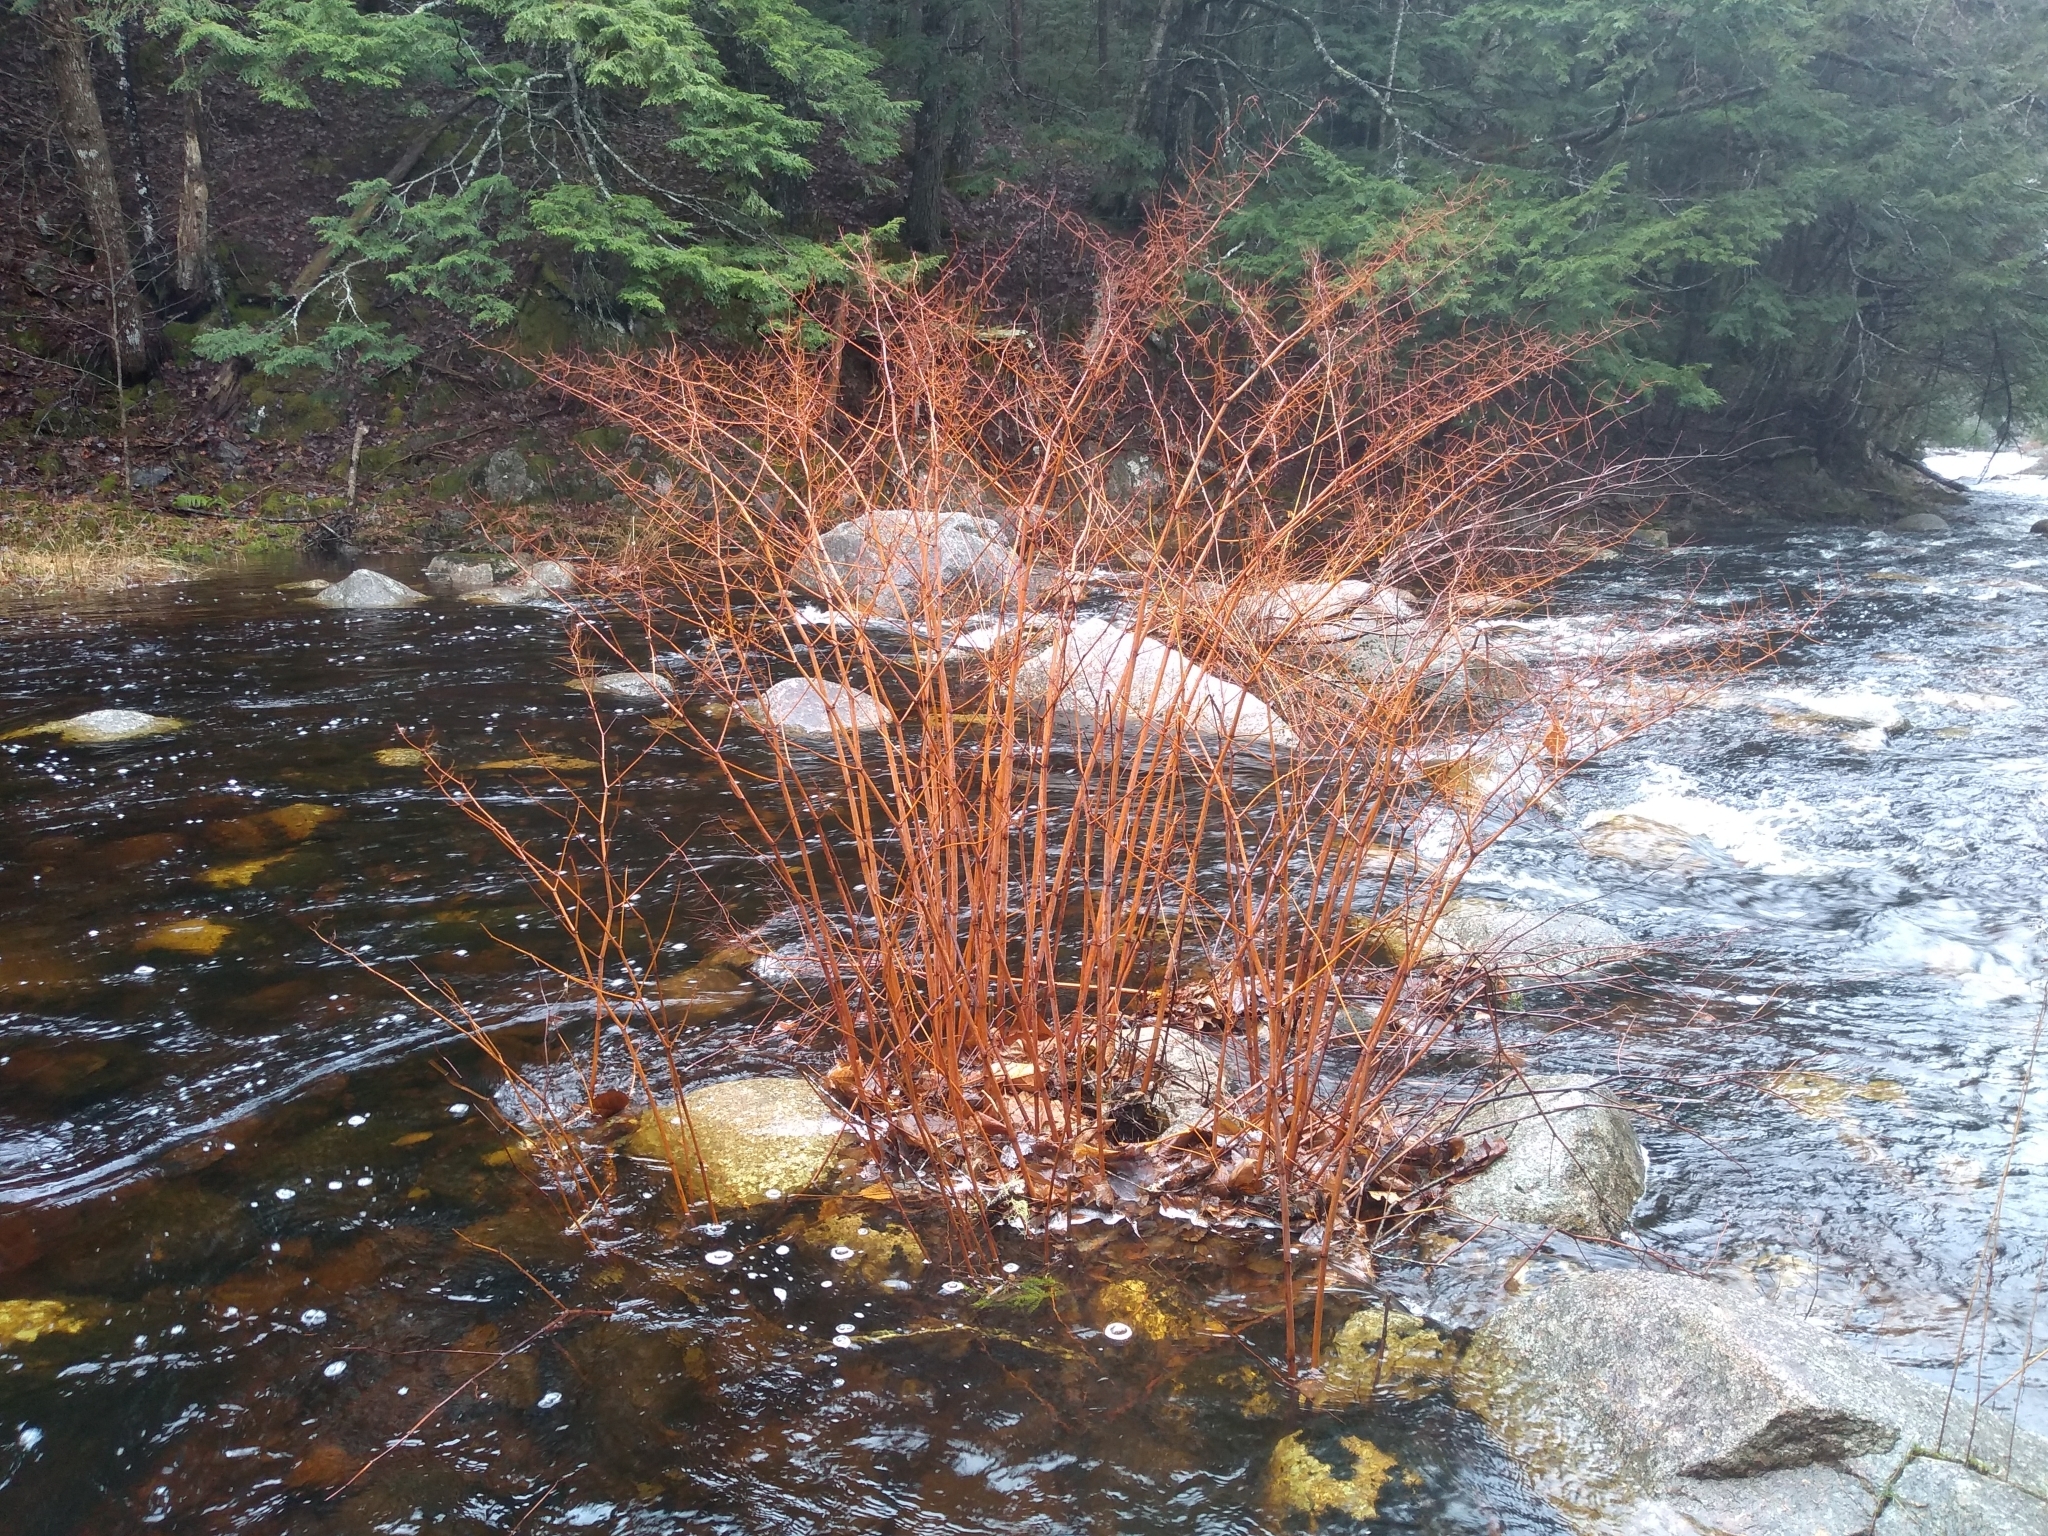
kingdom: Plantae
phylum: Tracheophyta
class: Magnoliopsida
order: Caryophyllales
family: Polygonaceae
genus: Reynoutria
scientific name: Reynoutria japonica
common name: Japanese knotweed
